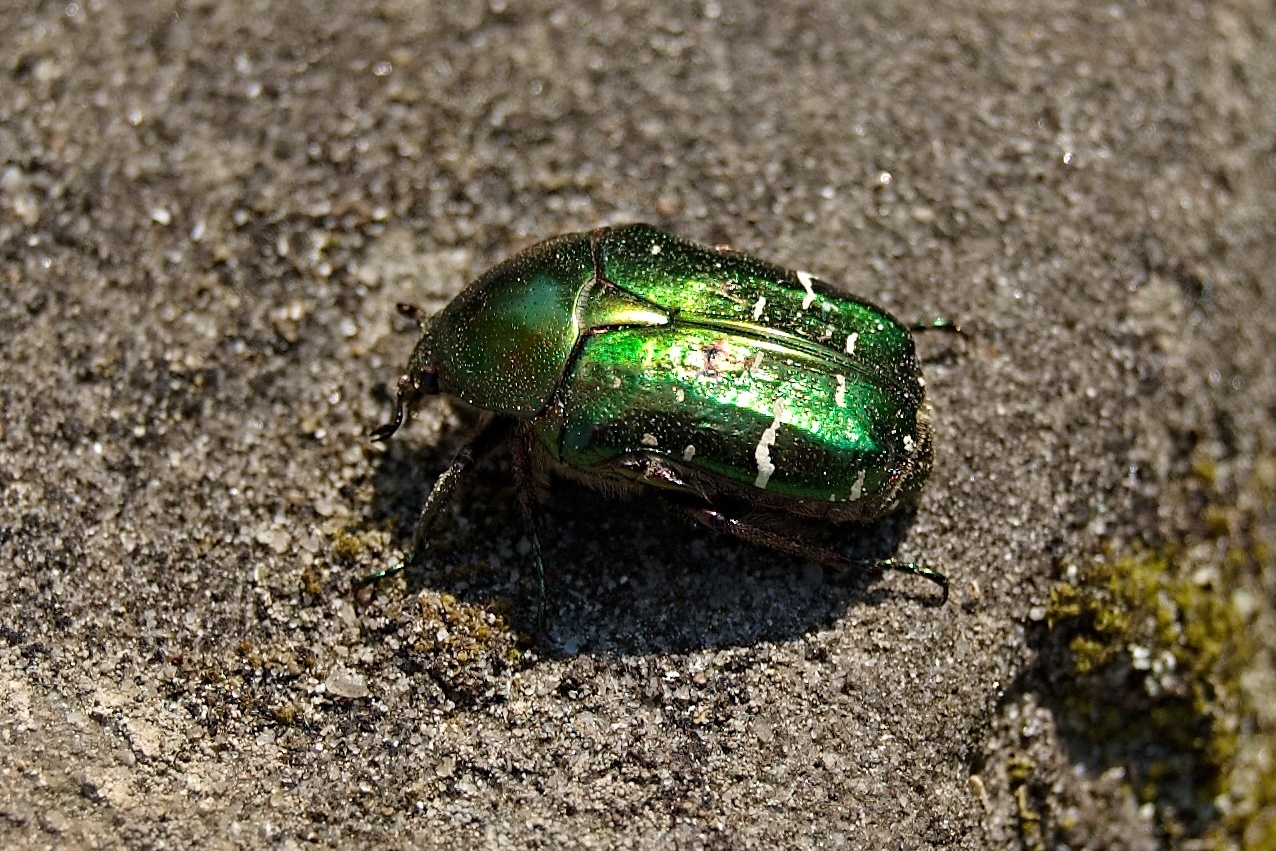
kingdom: Animalia
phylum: Arthropoda
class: Insecta
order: Coleoptera
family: Scarabaeidae
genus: Cetonia
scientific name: Cetonia aurata
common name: Rose chafer
